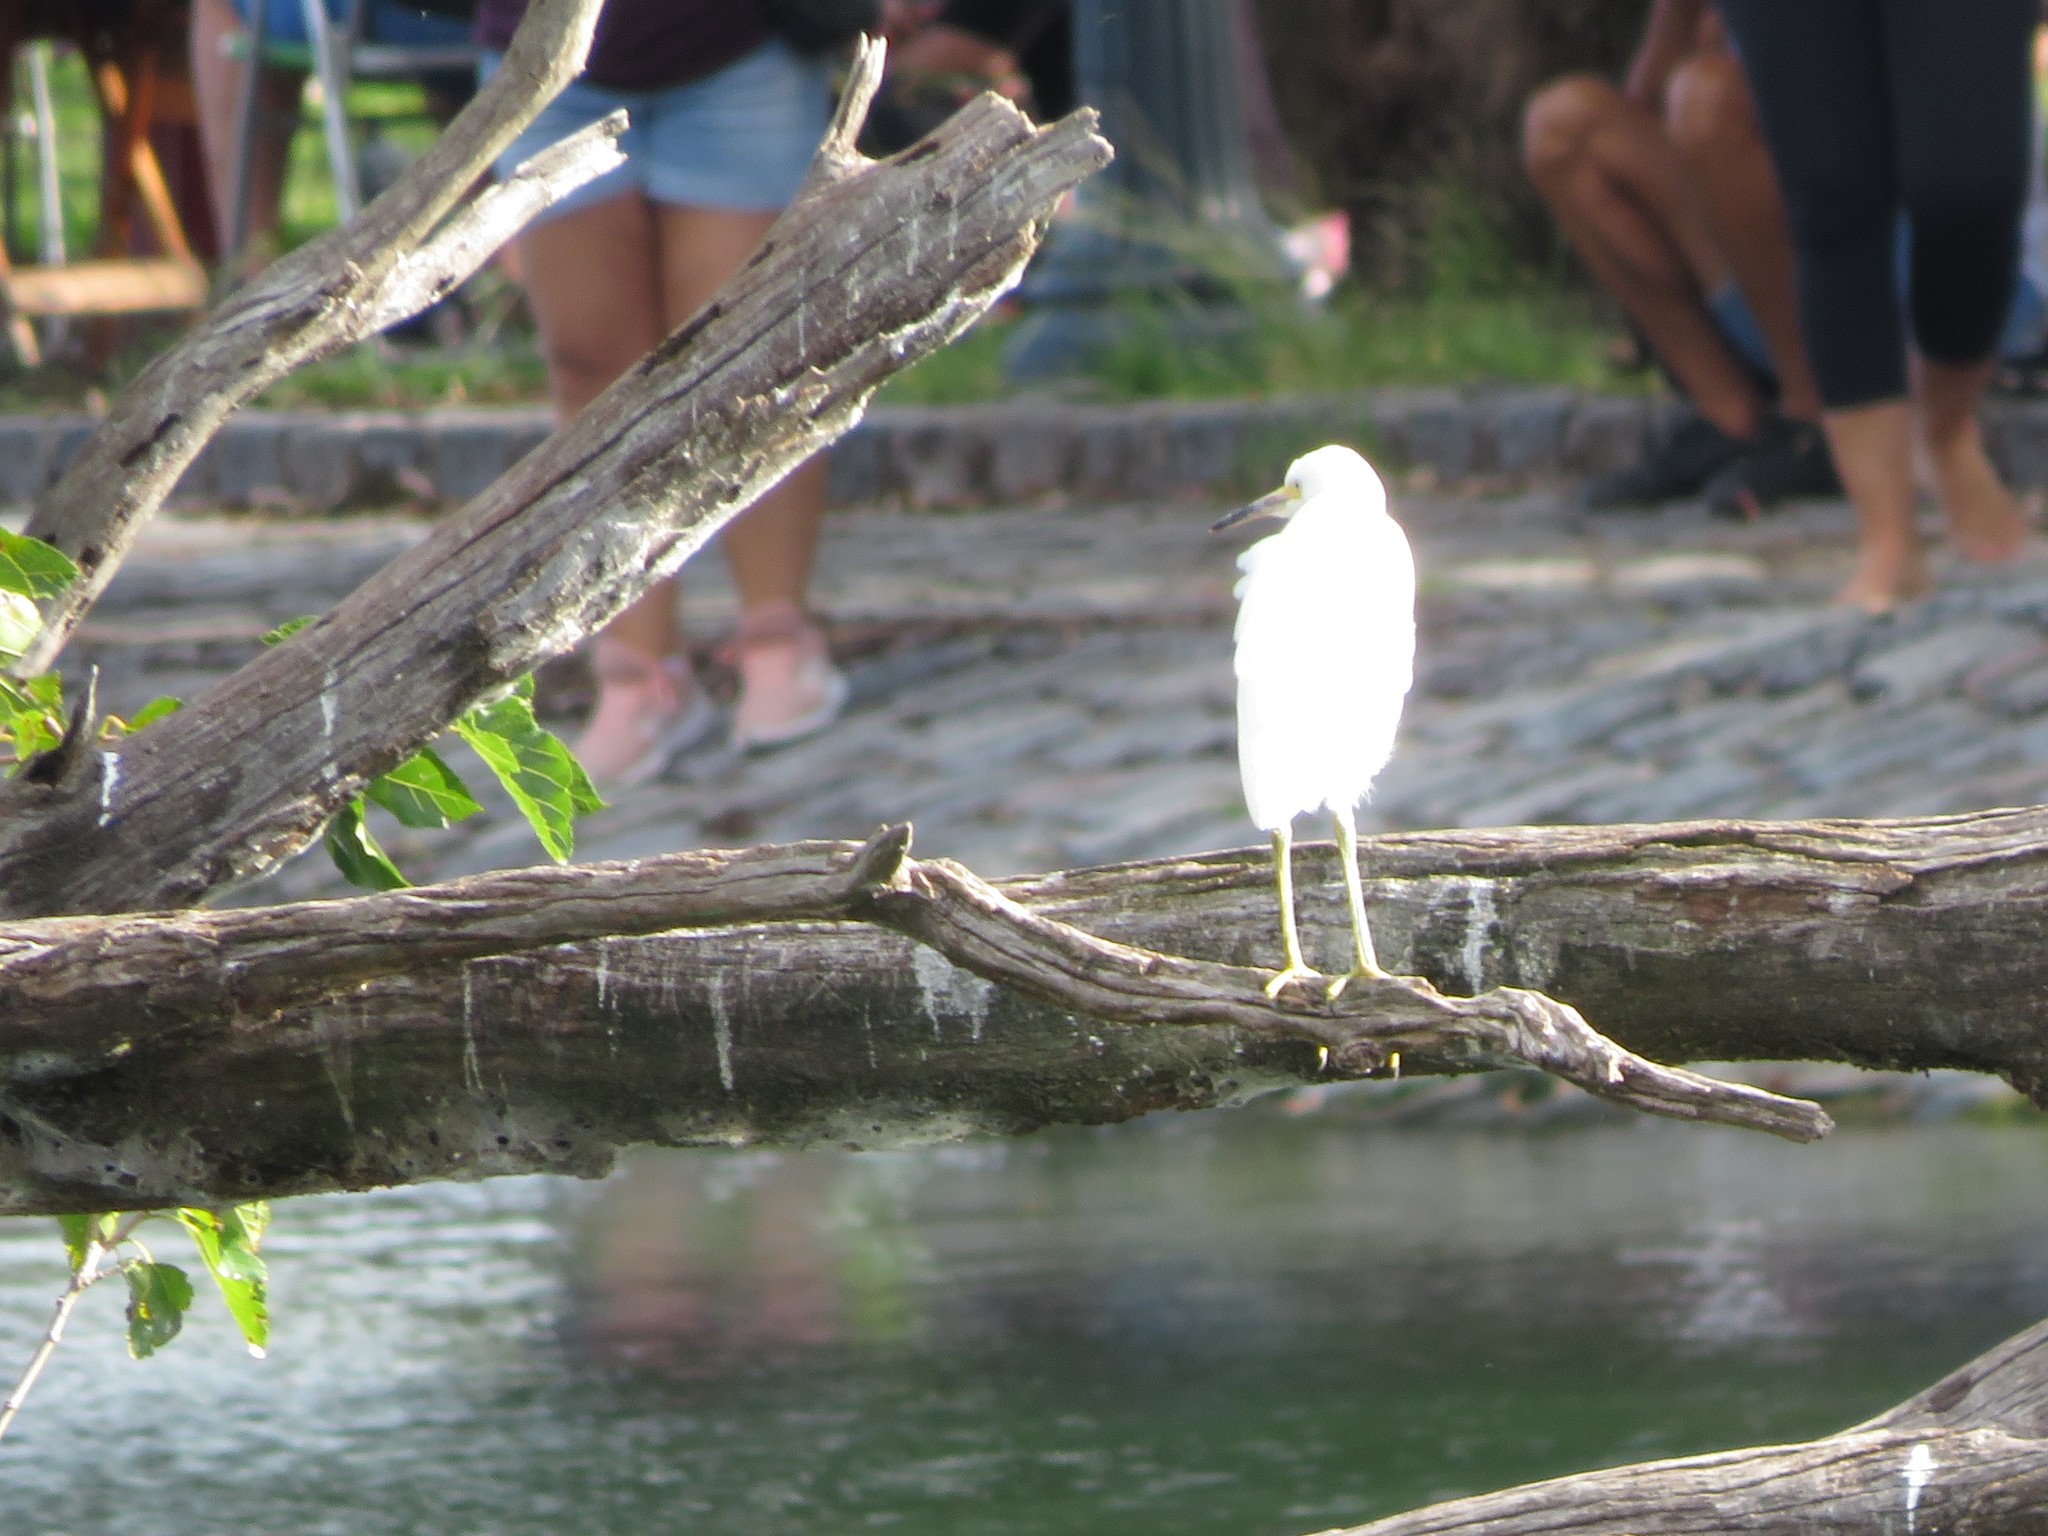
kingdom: Animalia
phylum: Chordata
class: Aves
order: Pelecaniformes
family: Ardeidae
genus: Egretta
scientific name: Egretta thula
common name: Snowy egret
